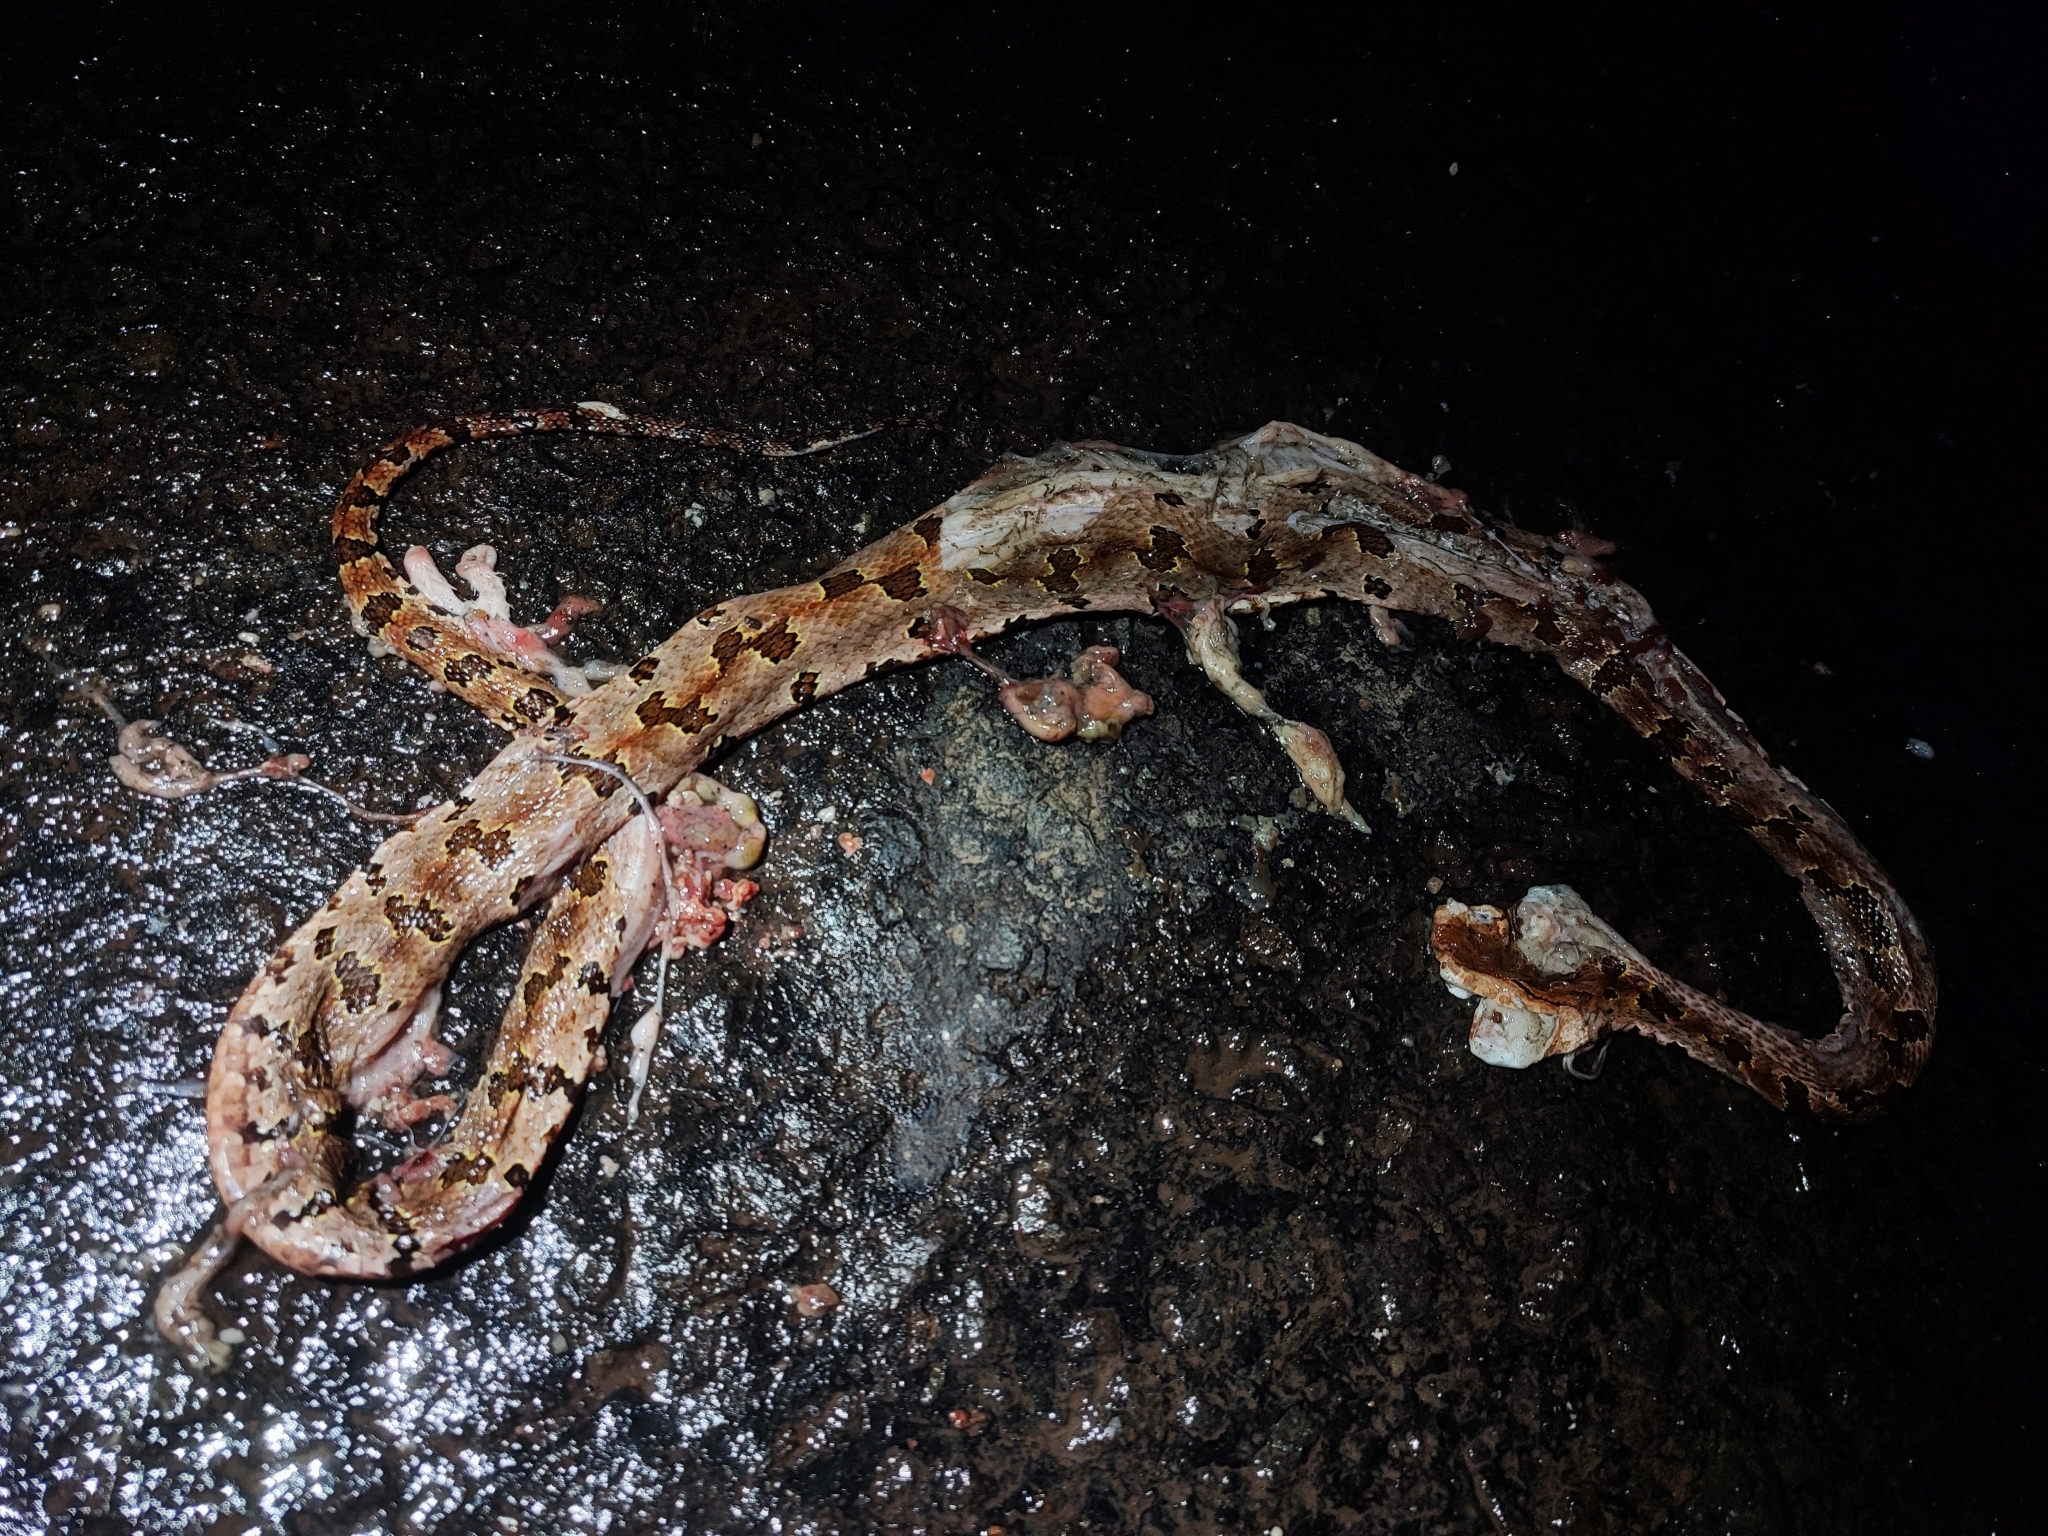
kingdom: Animalia
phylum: Chordata
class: Squamata
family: Viperidae
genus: Protobothrops
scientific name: Protobothrops mucrosquamatus
